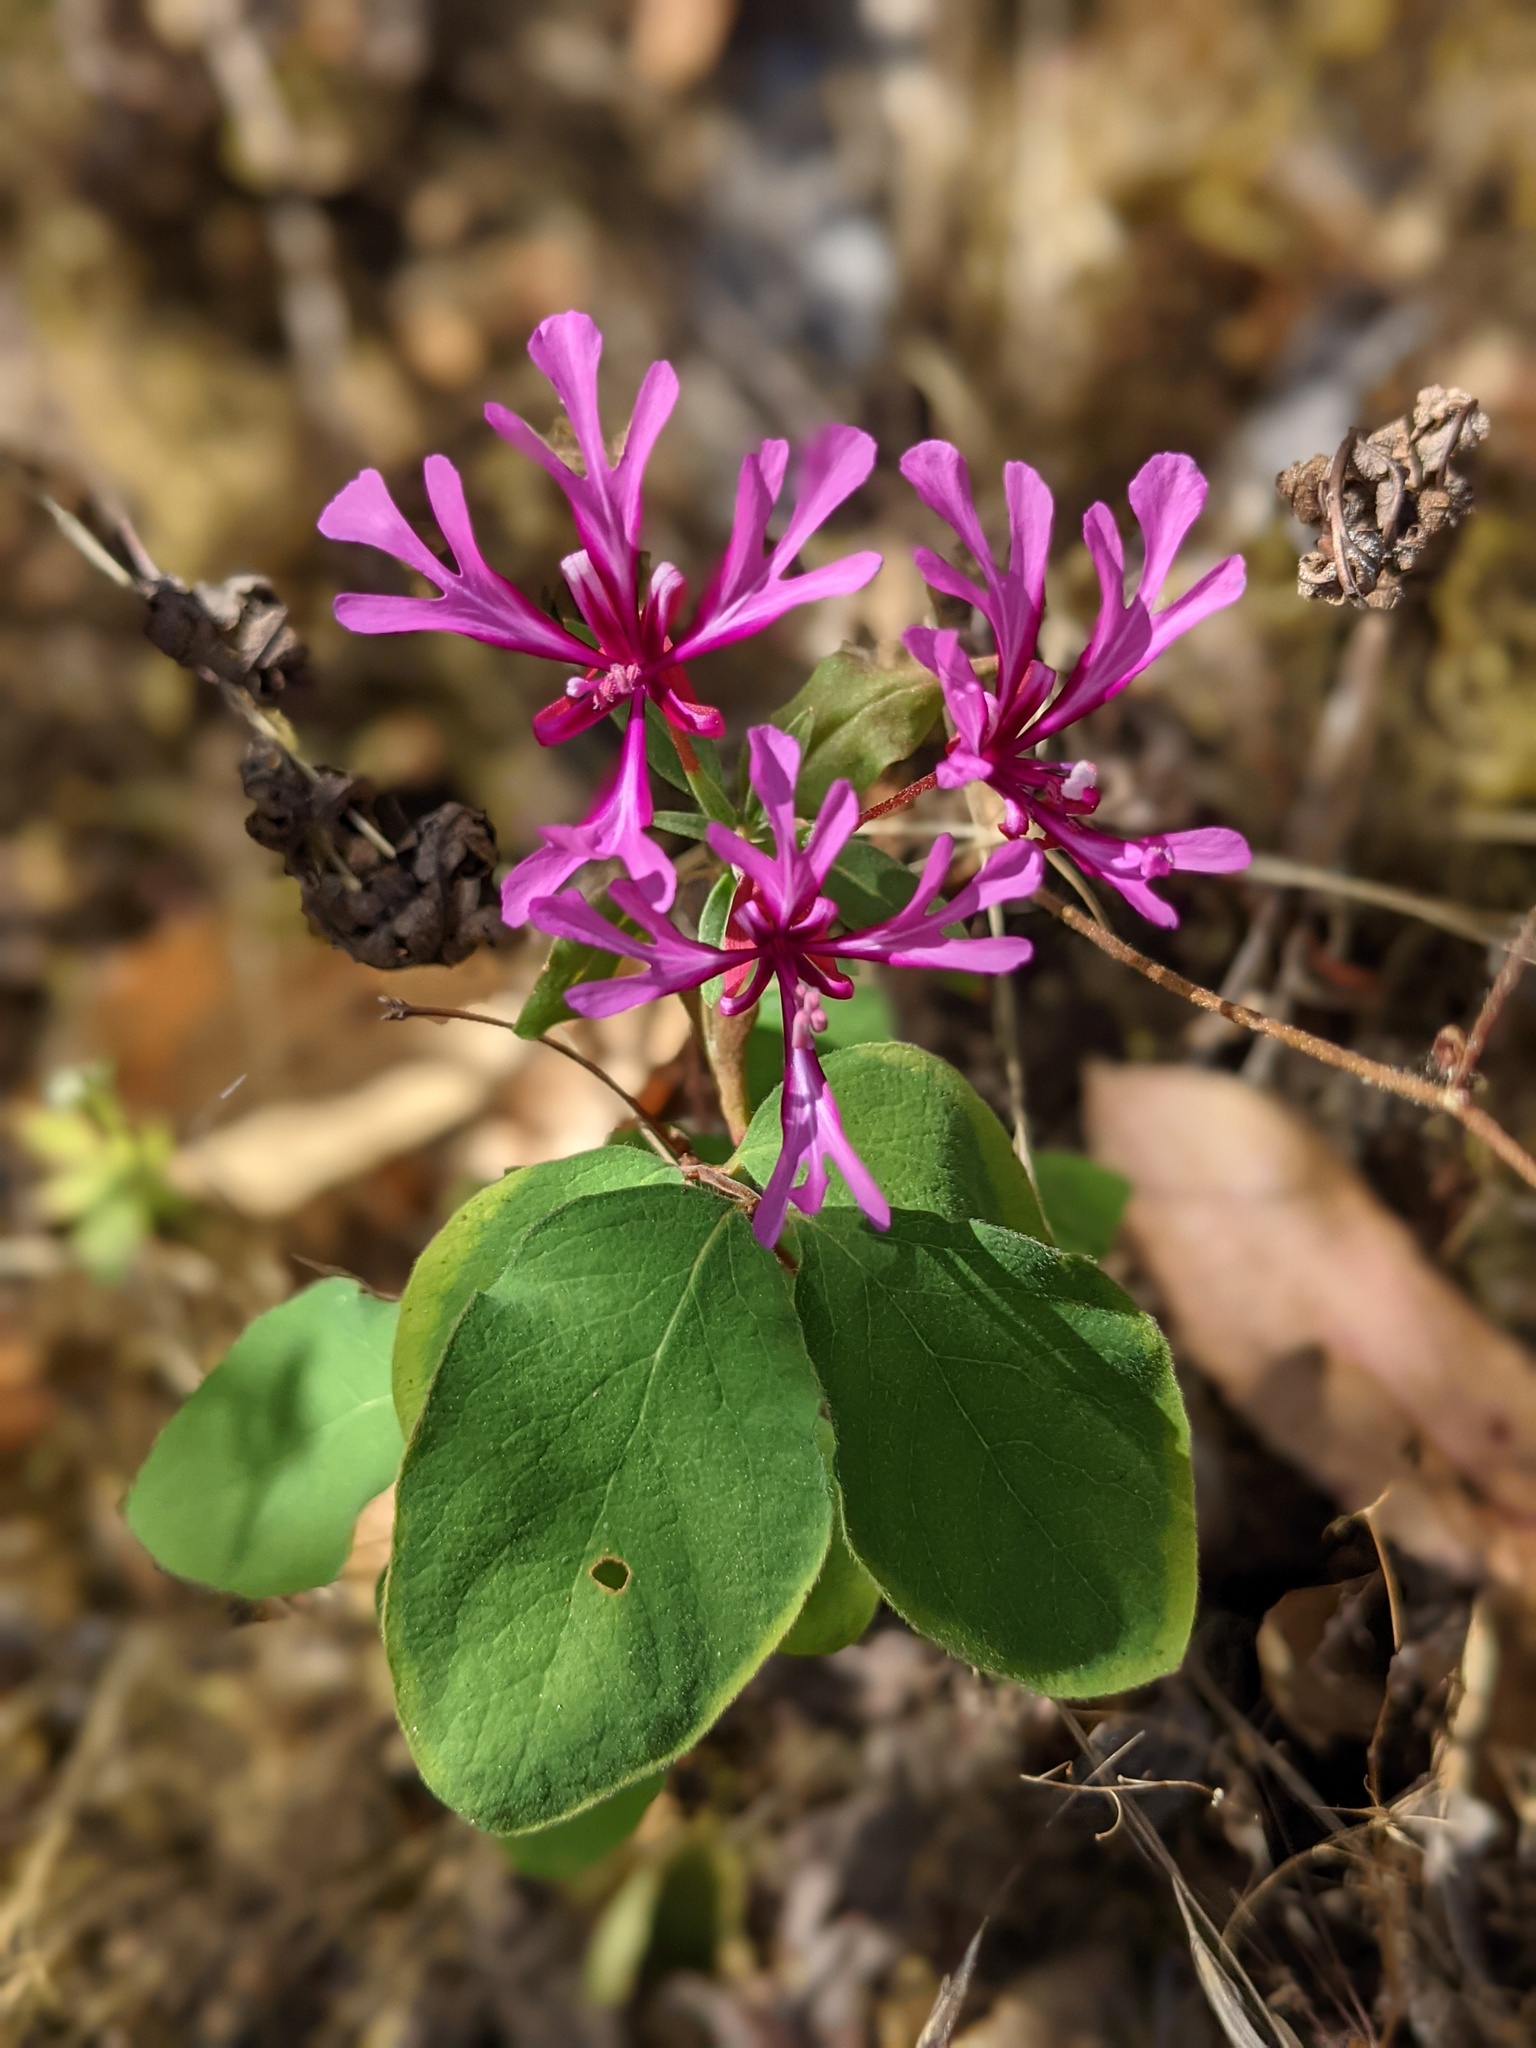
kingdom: Plantae
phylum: Tracheophyta
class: Magnoliopsida
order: Myrtales
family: Onagraceae
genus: Clarkia
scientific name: Clarkia concinna
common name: Red-ribbons
